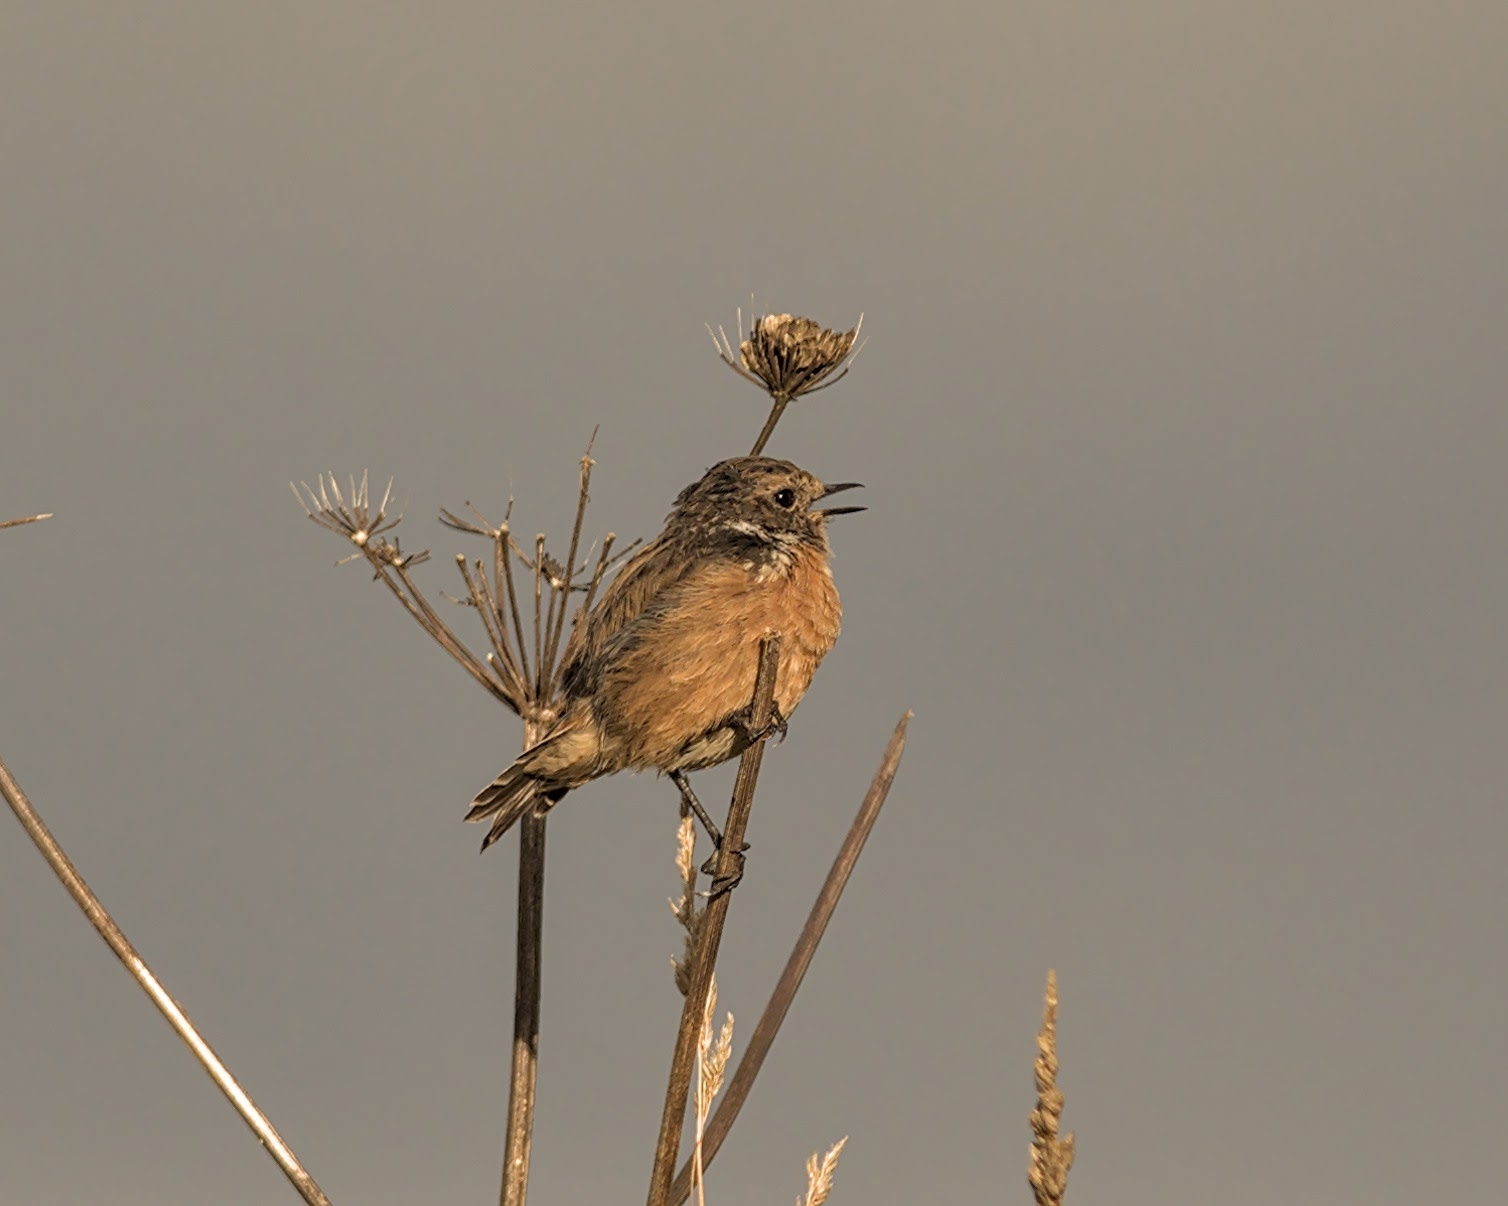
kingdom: Animalia
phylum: Chordata
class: Aves
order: Passeriformes
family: Muscicapidae
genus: Saxicola
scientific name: Saxicola rubicola
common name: European stonechat
